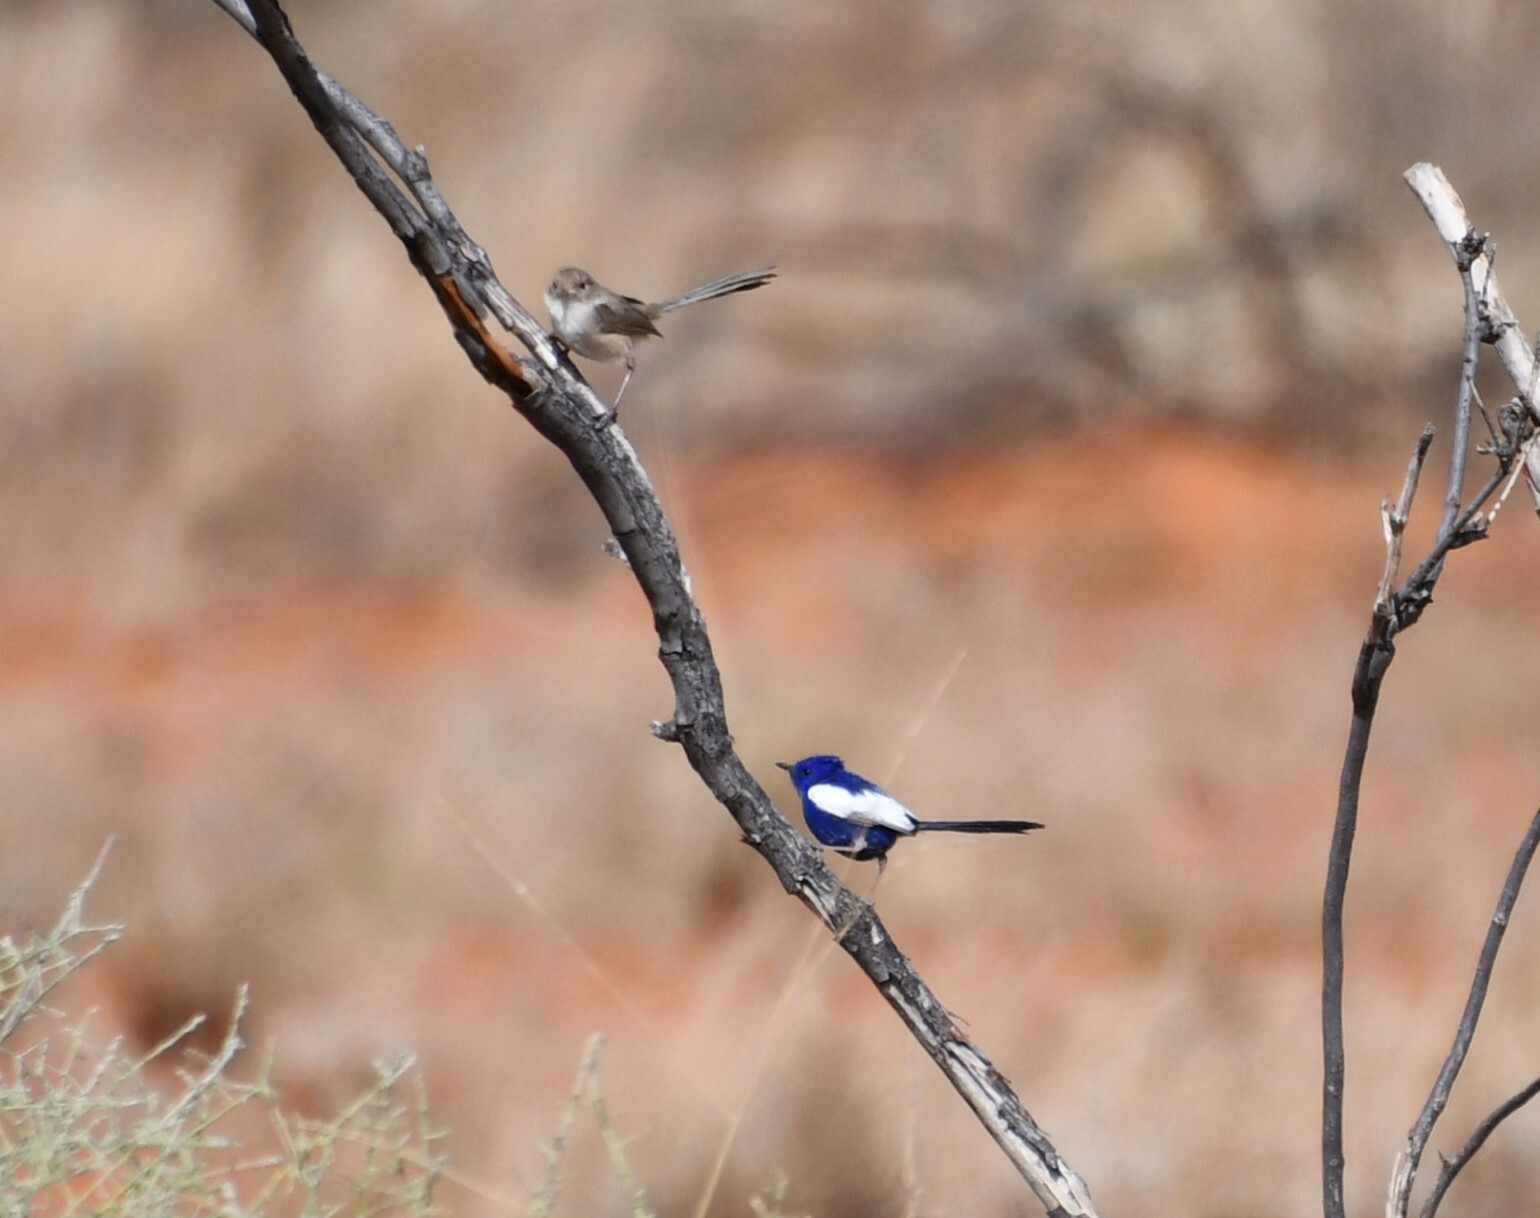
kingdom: Animalia
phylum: Chordata
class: Aves
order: Passeriformes
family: Maluridae
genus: Malurus
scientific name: Malurus leucopterus
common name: White-winged fairywren
